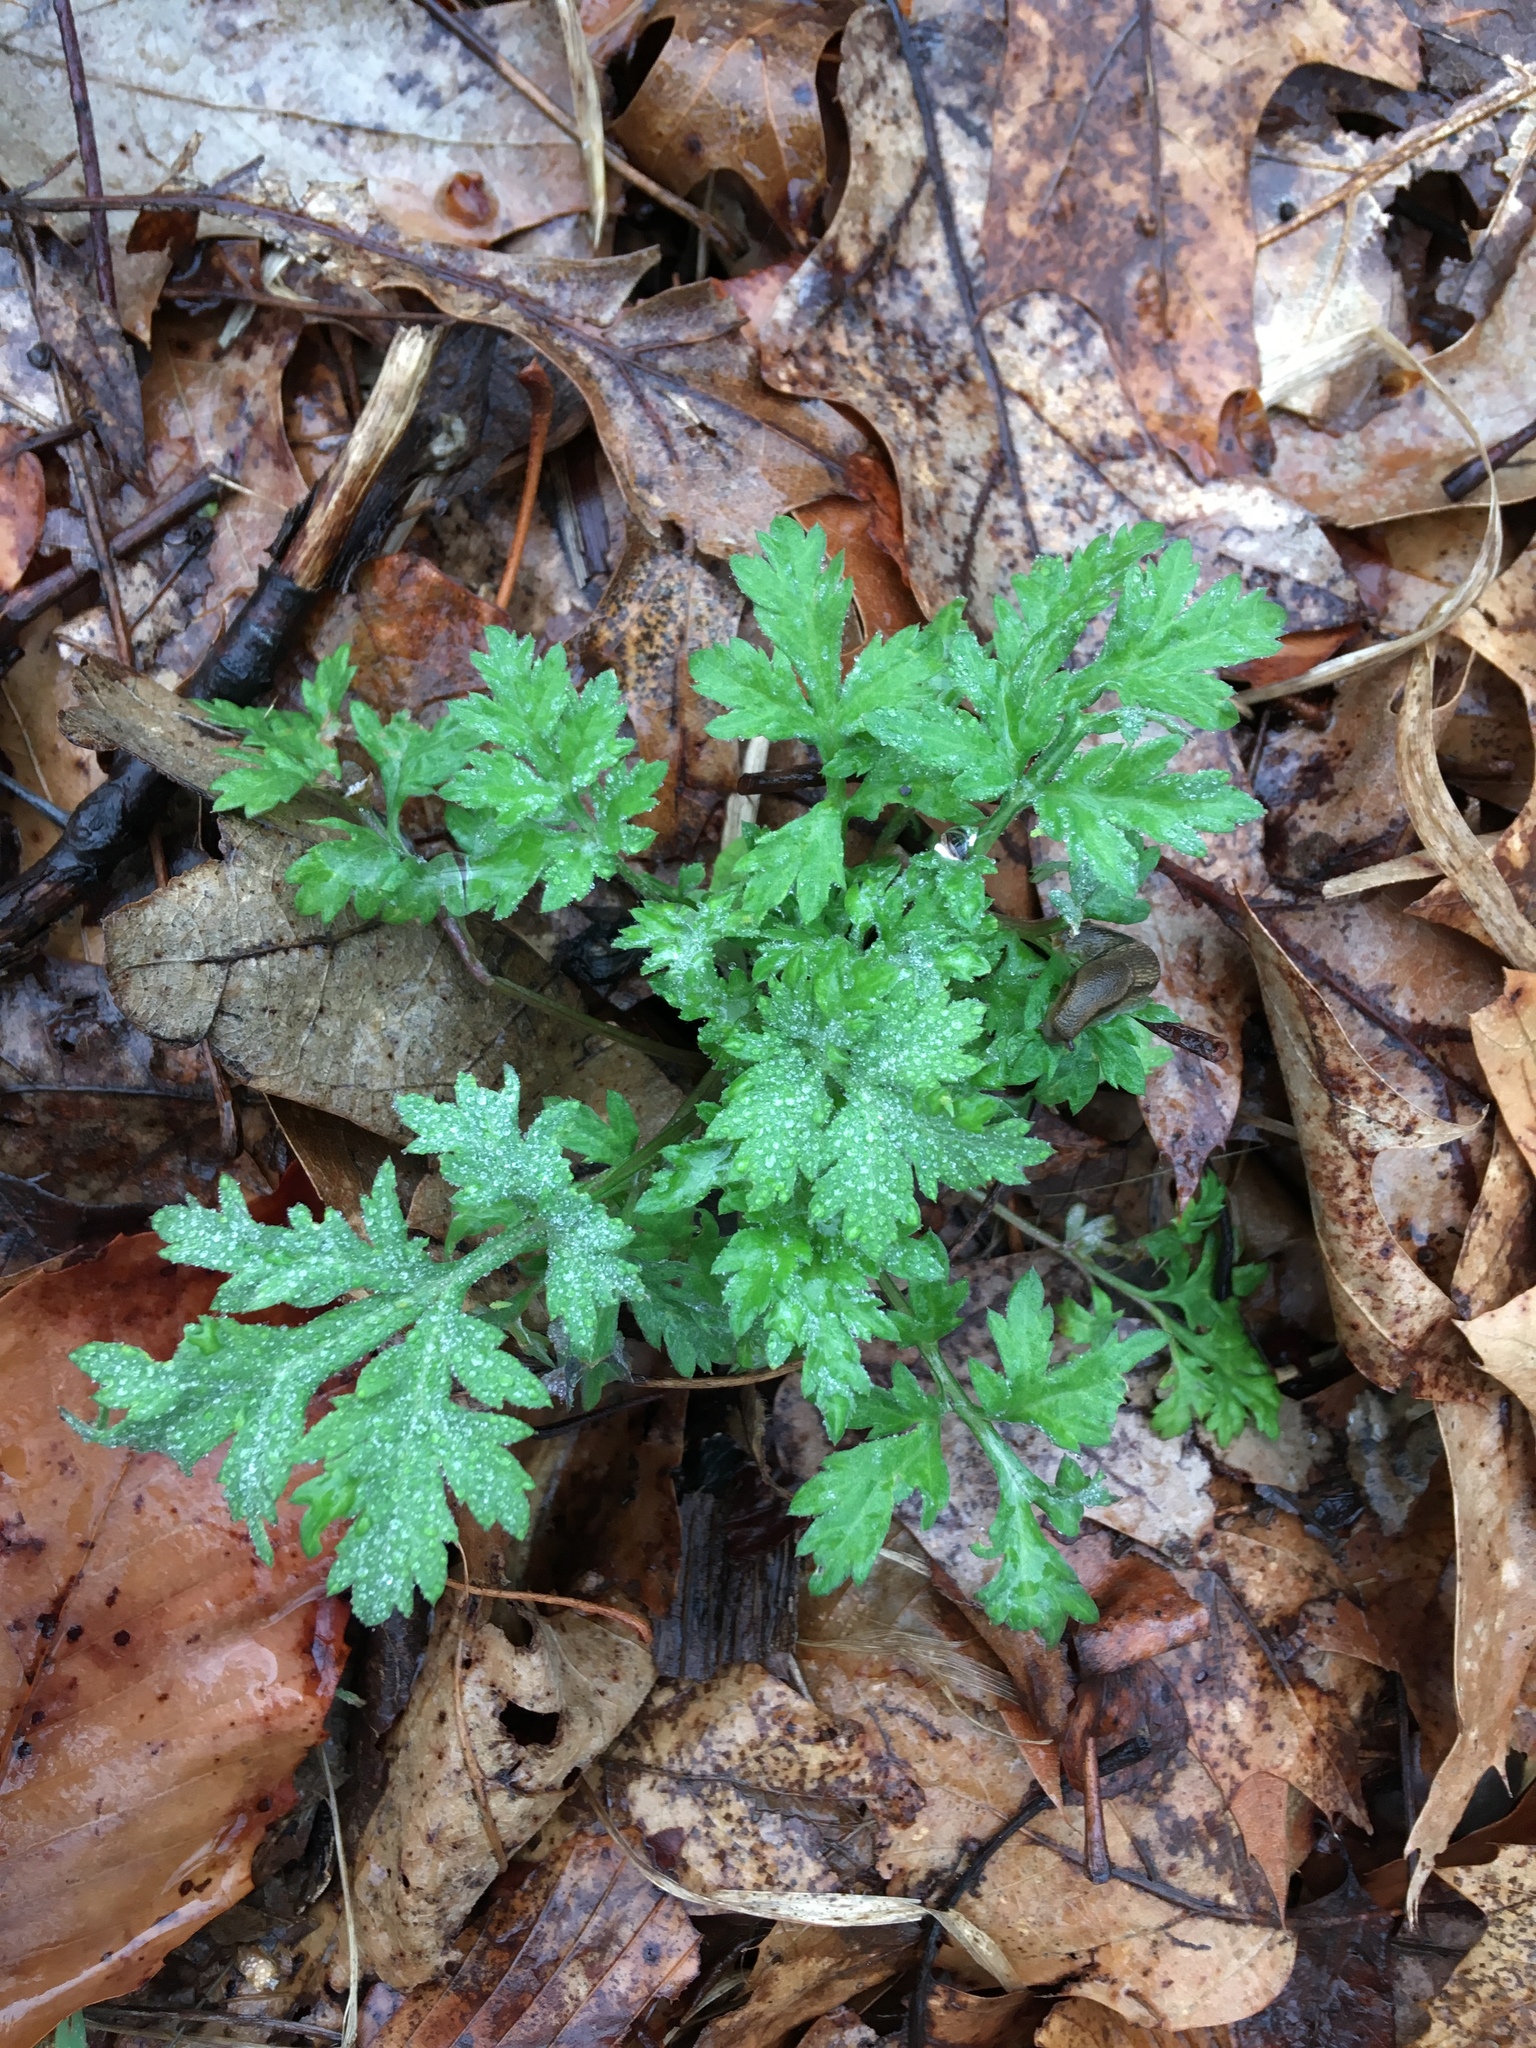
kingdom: Plantae
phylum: Tracheophyta
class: Magnoliopsida
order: Asterales
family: Asteraceae
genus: Artemisia
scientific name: Artemisia vulgaris
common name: Mugwort
